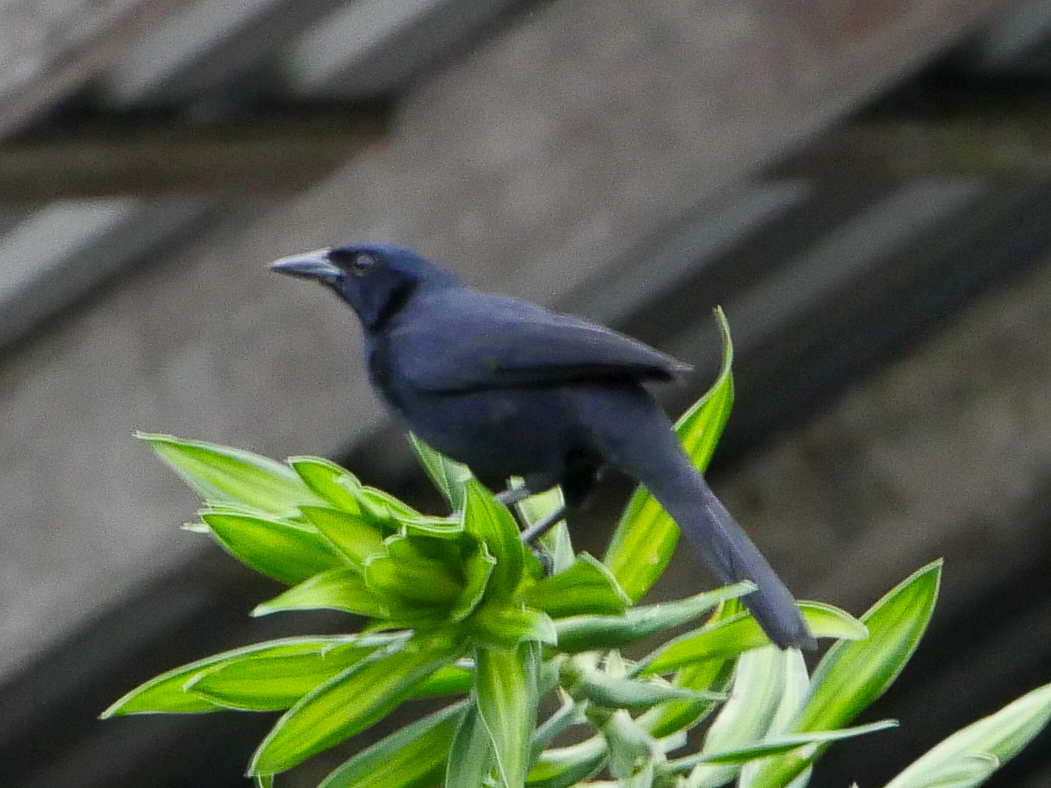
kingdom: Animalia
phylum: Chordata
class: Aves
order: Passeriformes
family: Icteridae
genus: Dives
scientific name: Dives dives
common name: Melodious blackbird
